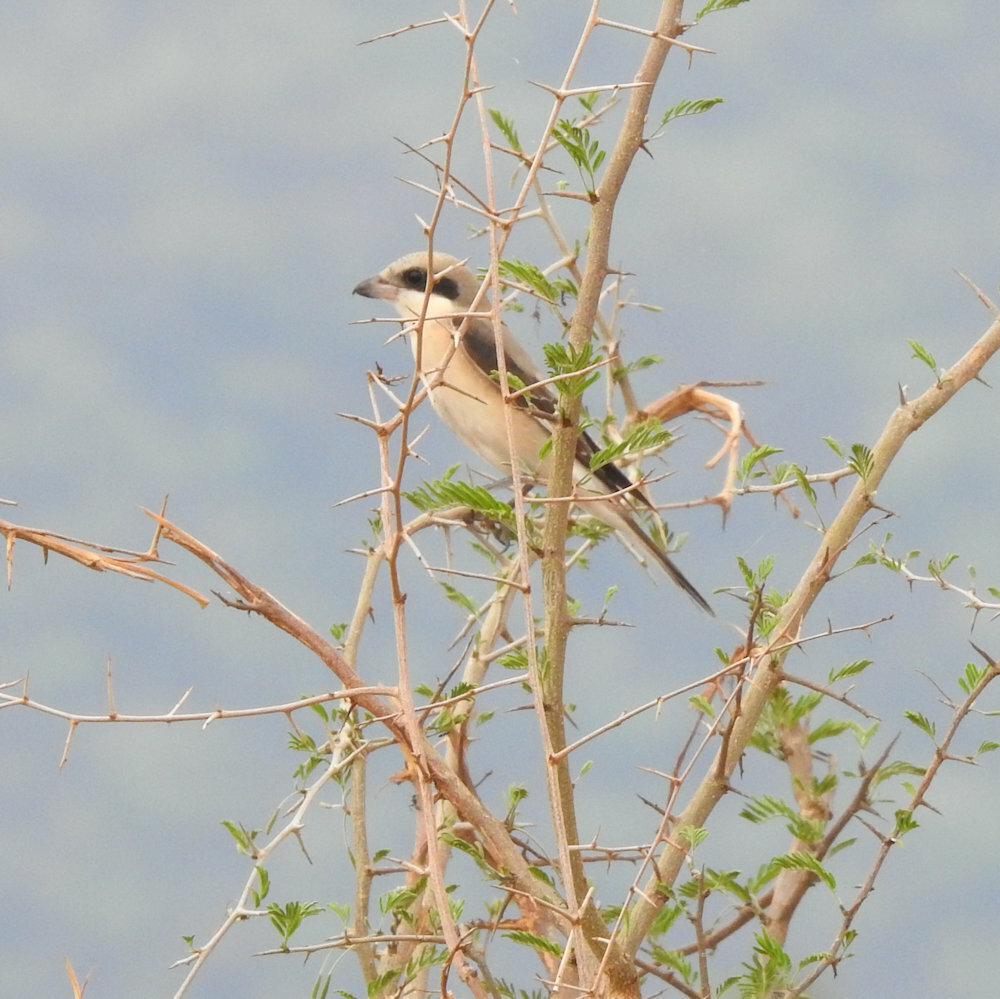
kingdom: Animalia
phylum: Chordata
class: Aves
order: Passeriformes
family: Laniidae
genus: Lanius
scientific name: Lanius minor
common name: Lesser grey shrike
